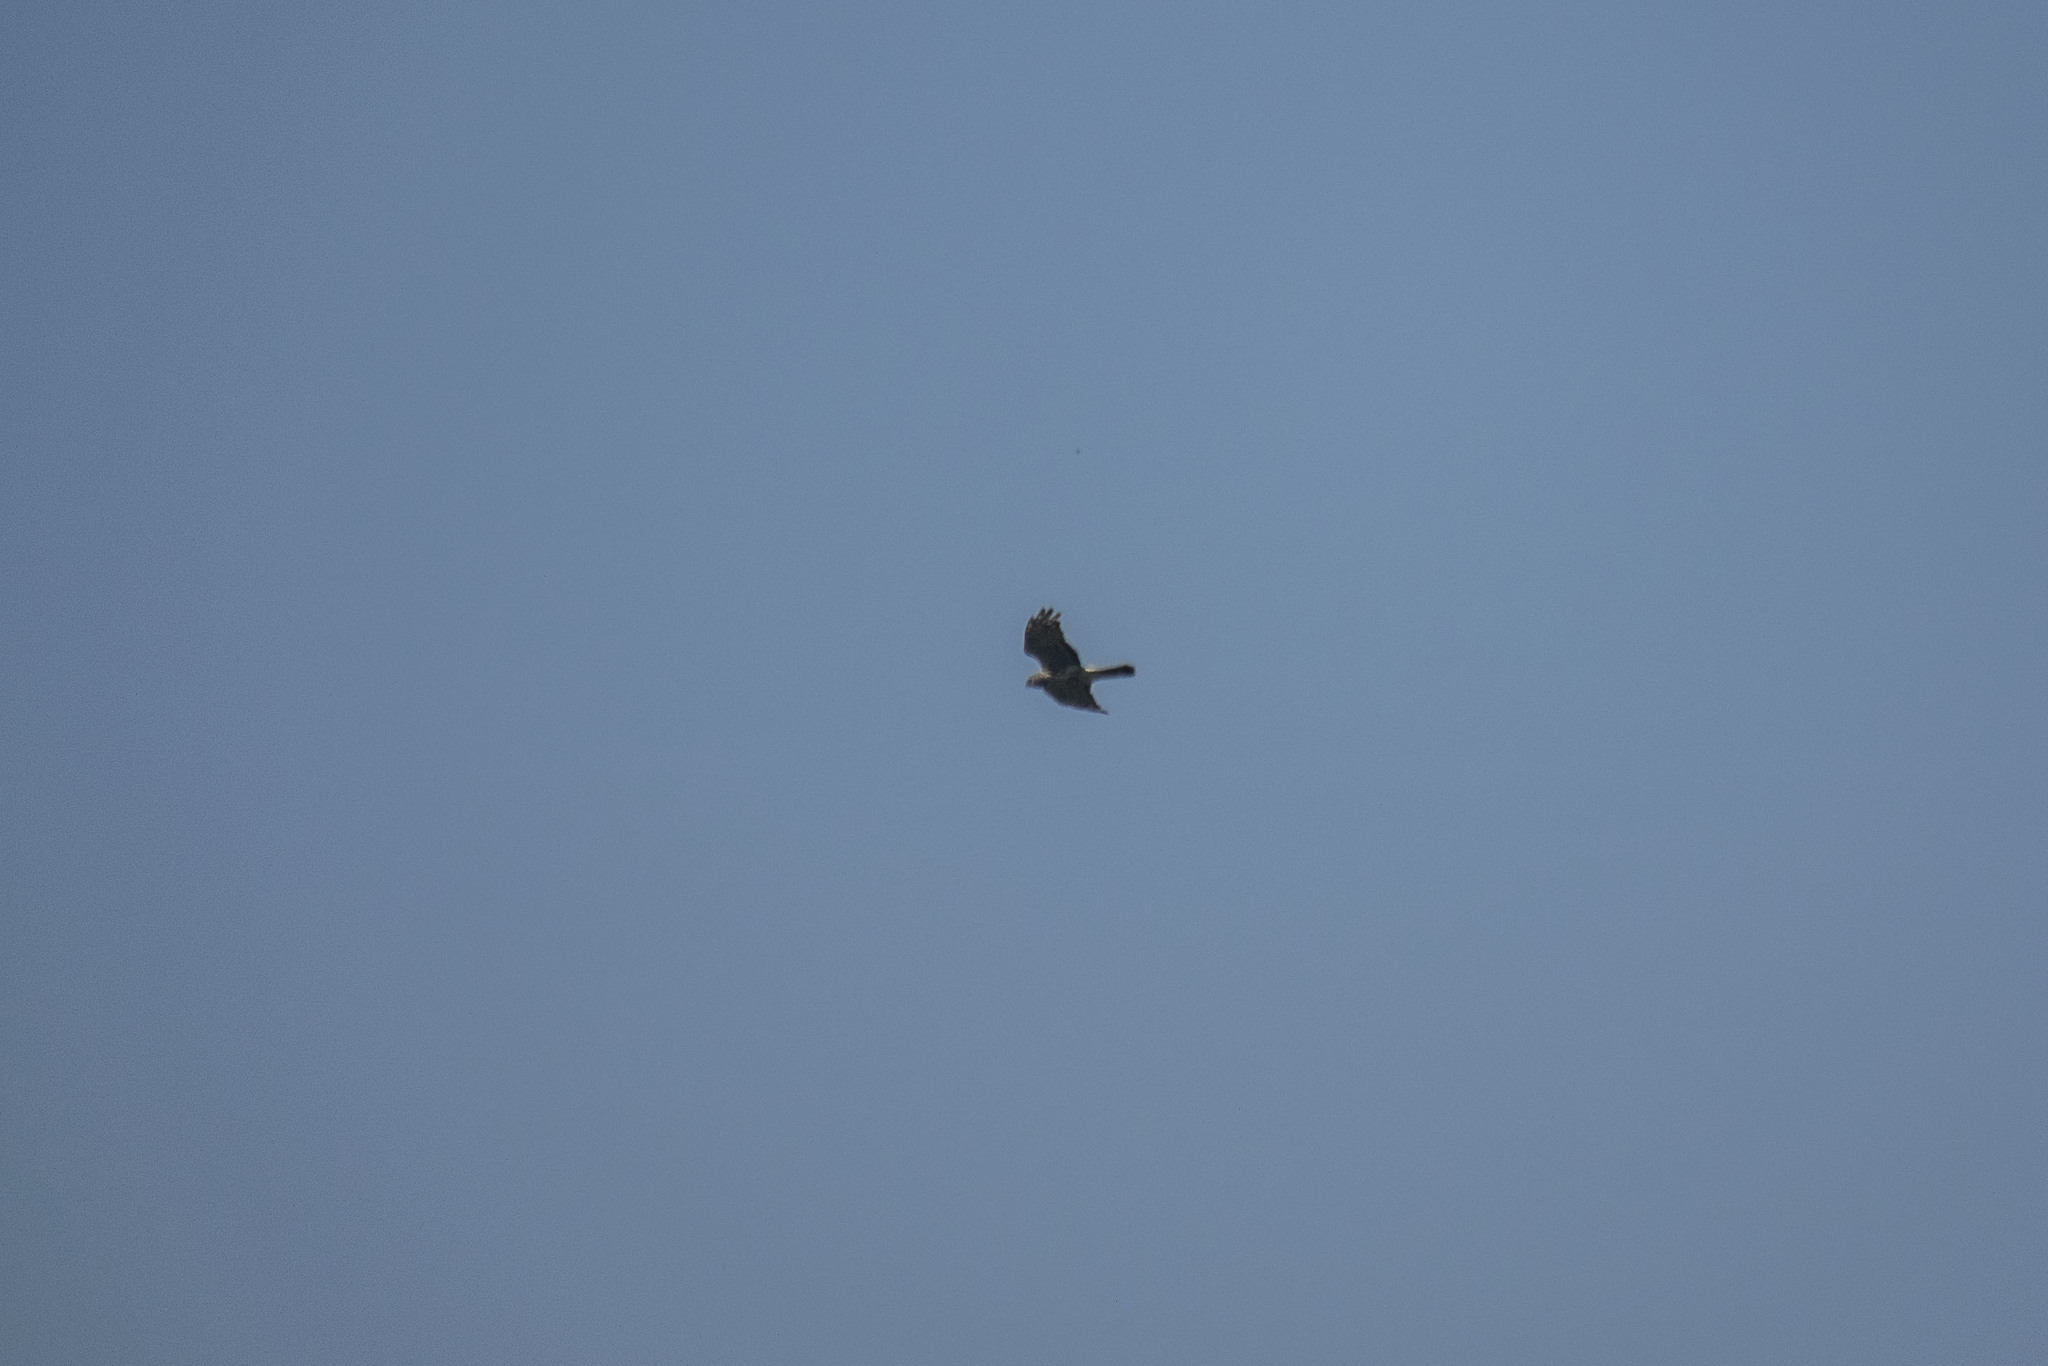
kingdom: Animalia
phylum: Chordata
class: Aves
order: Accipitriformes
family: Accipitridae
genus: Circus
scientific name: Circus cyaneus
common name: Hen harrier
